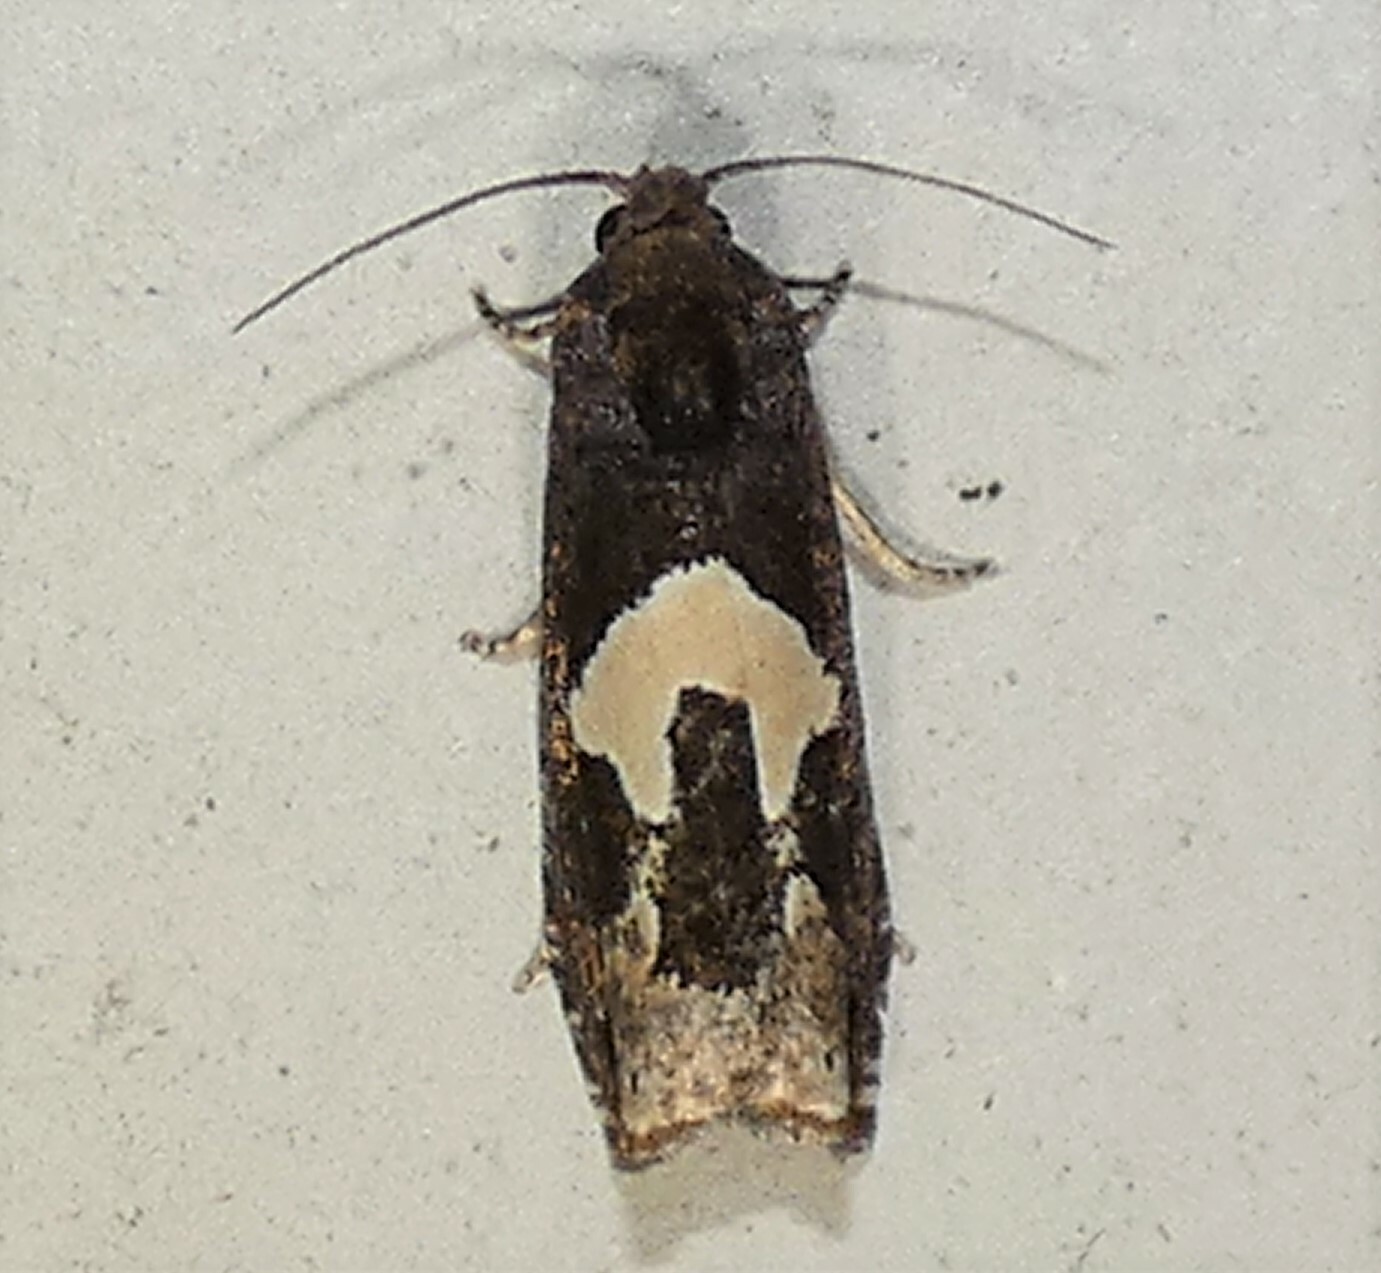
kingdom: Animalia
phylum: Arthropoda
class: Insecta
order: Lepidoptera
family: Tortricidae
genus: Epiblema
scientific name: Epiblema otiosana
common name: Bidens borer moth
